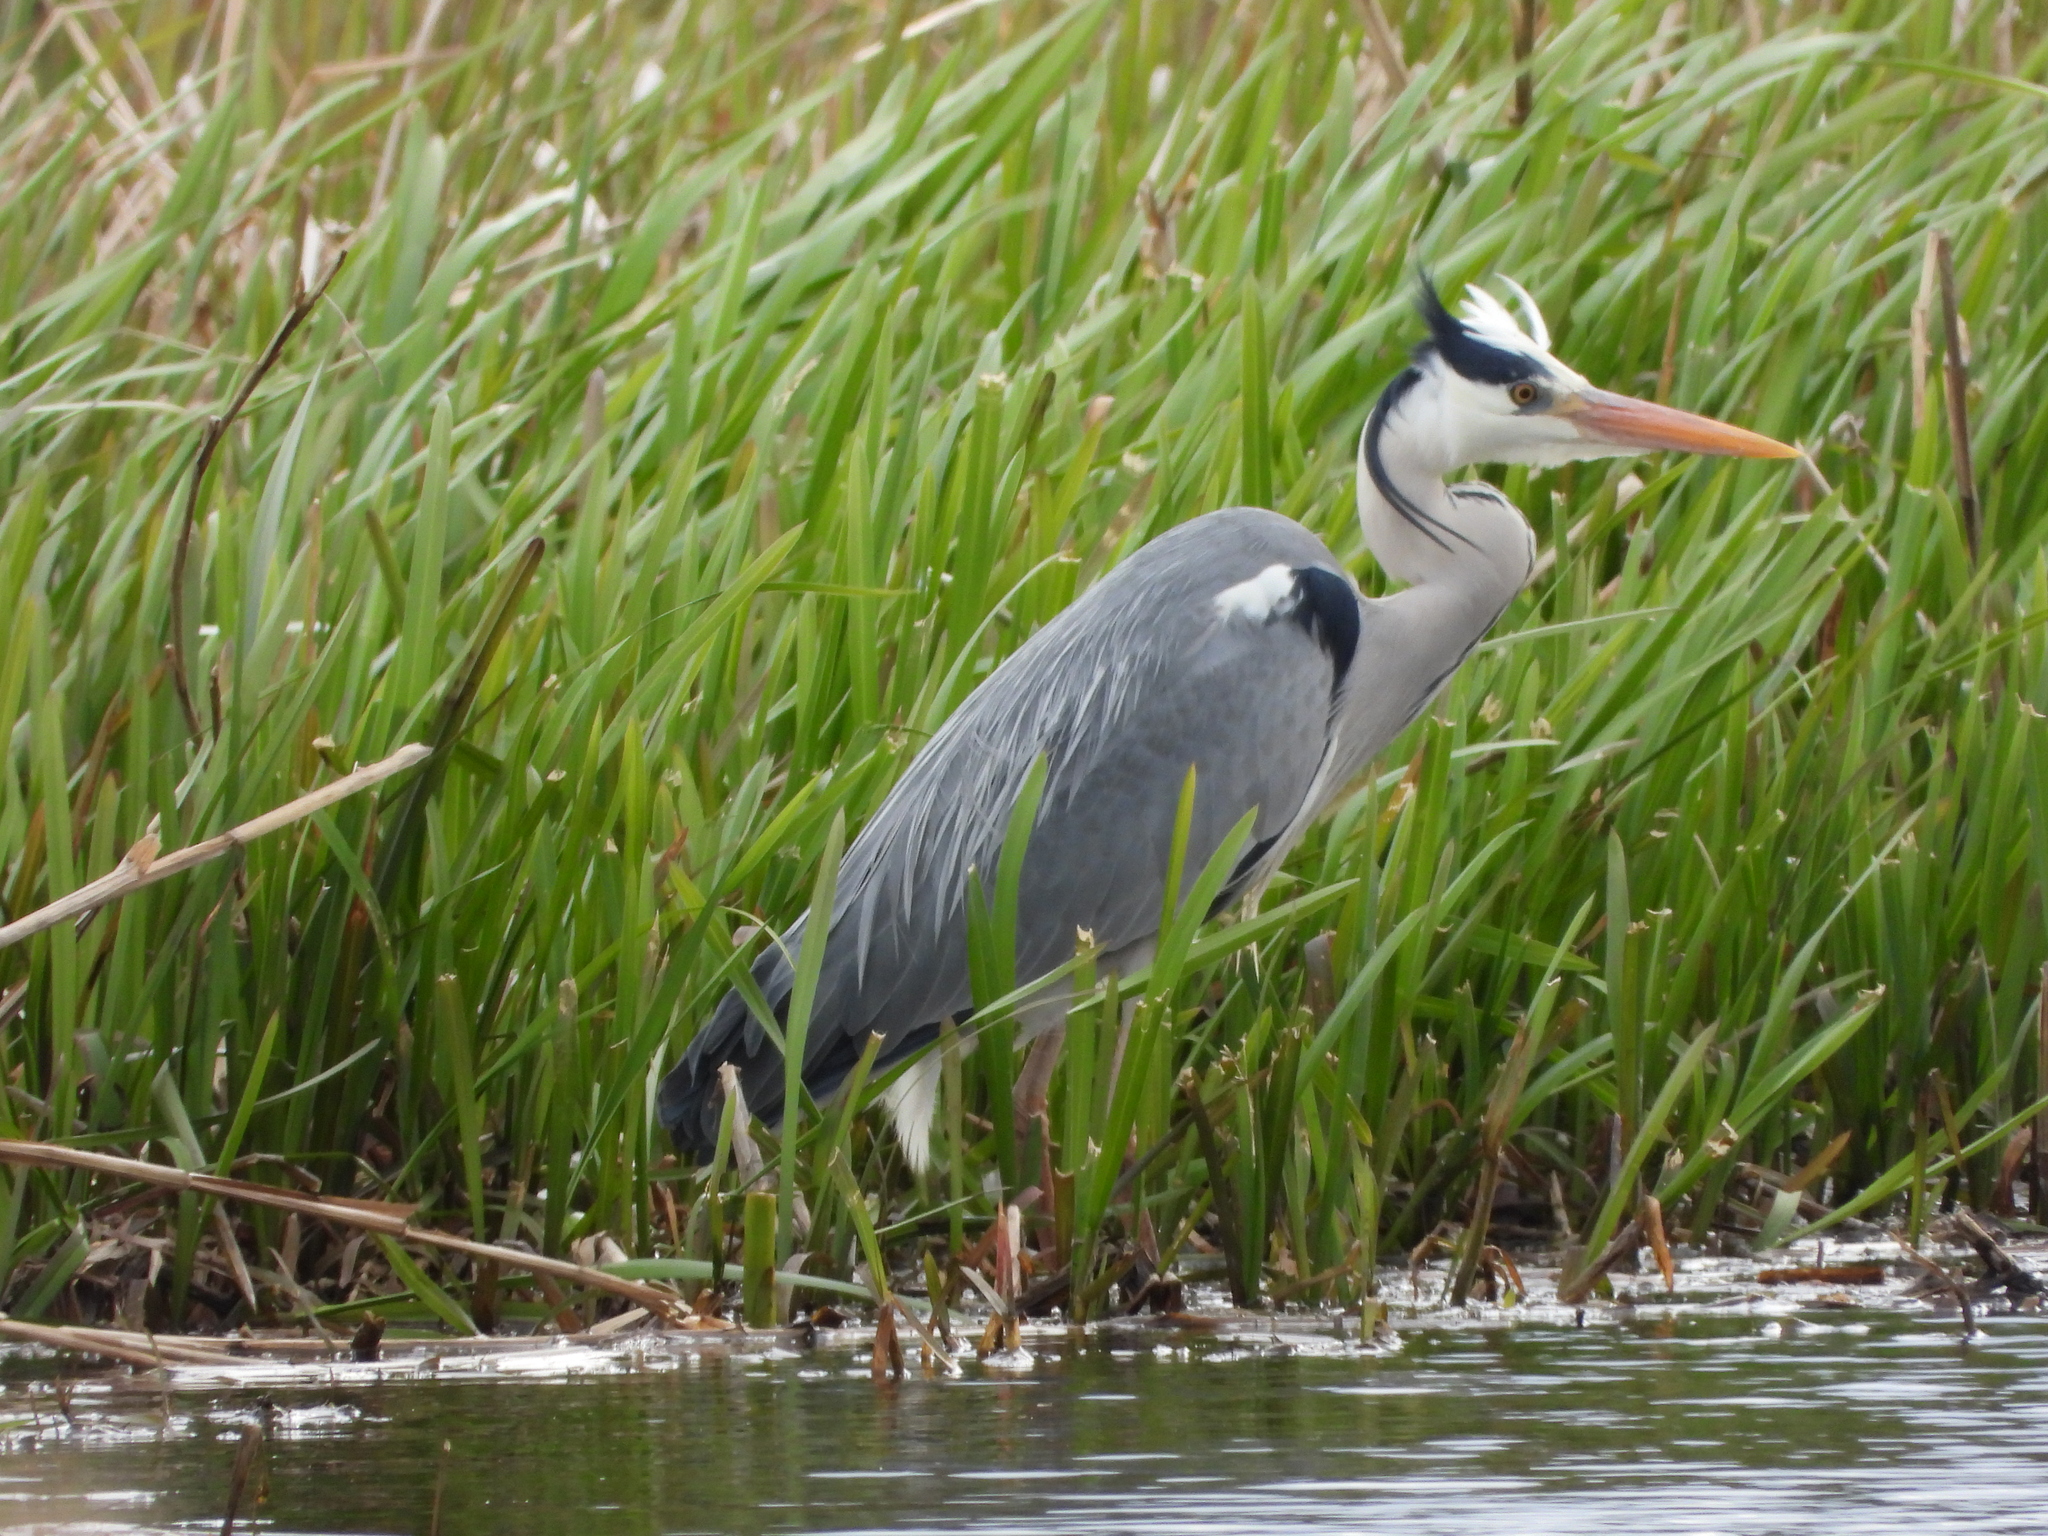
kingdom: Animalia
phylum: Chordata
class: Aves
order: Pelecaniformes
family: Ardeidae
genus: Ardea
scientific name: Ardea cinerea
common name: Grey heron
